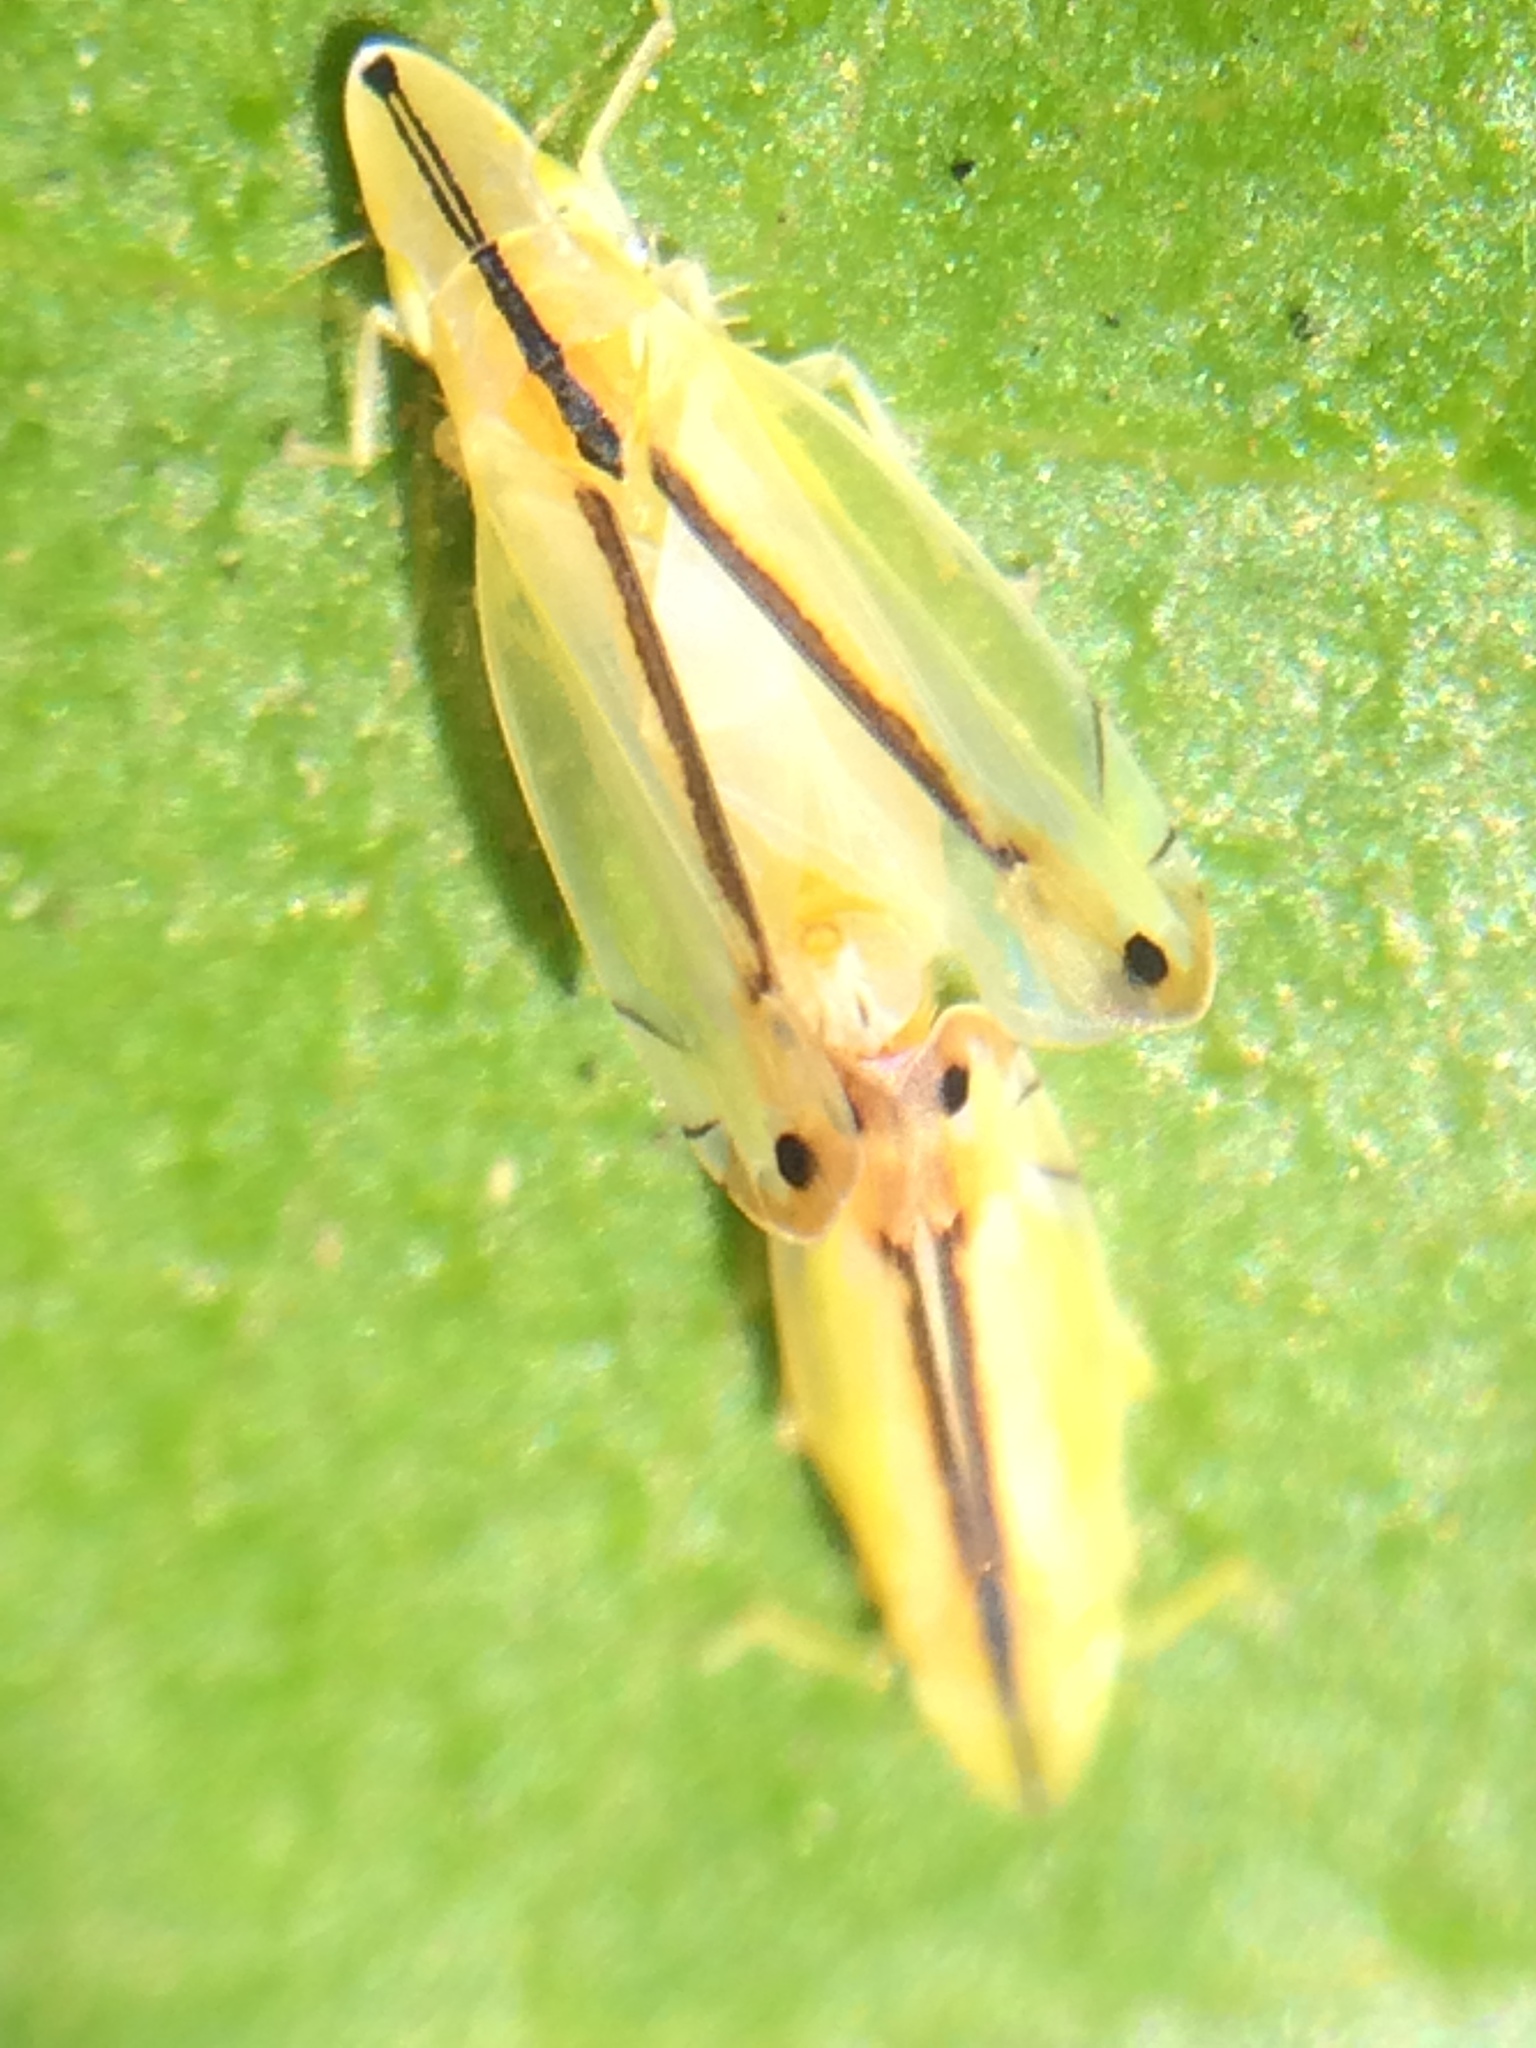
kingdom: Animalia
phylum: Arthropoda
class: Insecta
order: Hemiptera
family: Cicadellidae
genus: Sophonia
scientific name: Sophonia orientalis
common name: Two-spotted leafhopper
